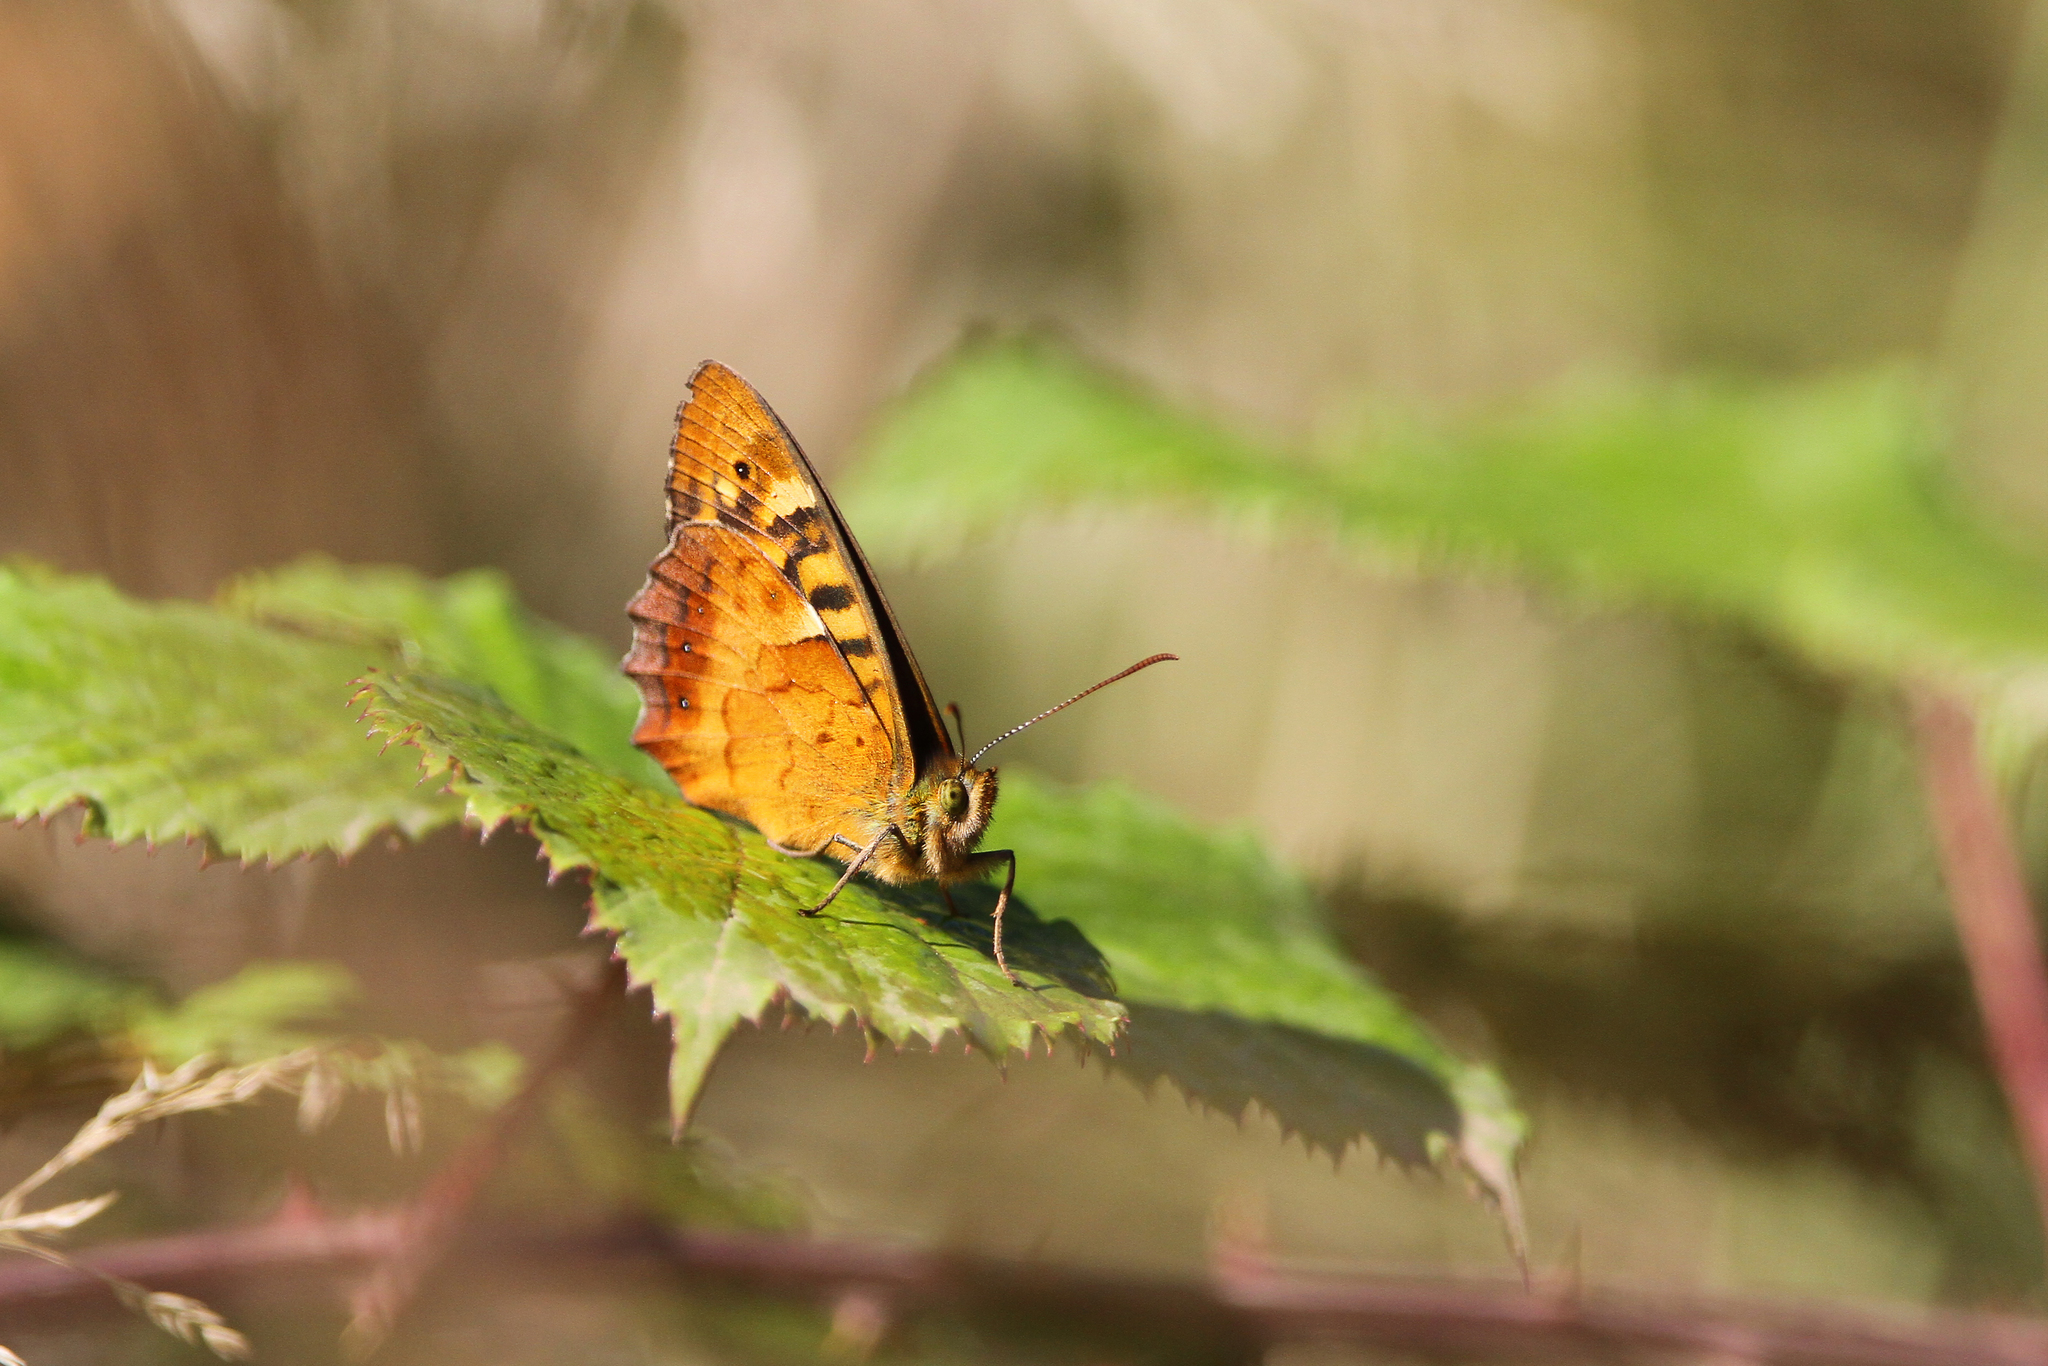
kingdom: Animalia
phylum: Arthropoda
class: Insecta
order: Lepidoptera
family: Nymphalidae
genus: Pararge
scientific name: Pararge
